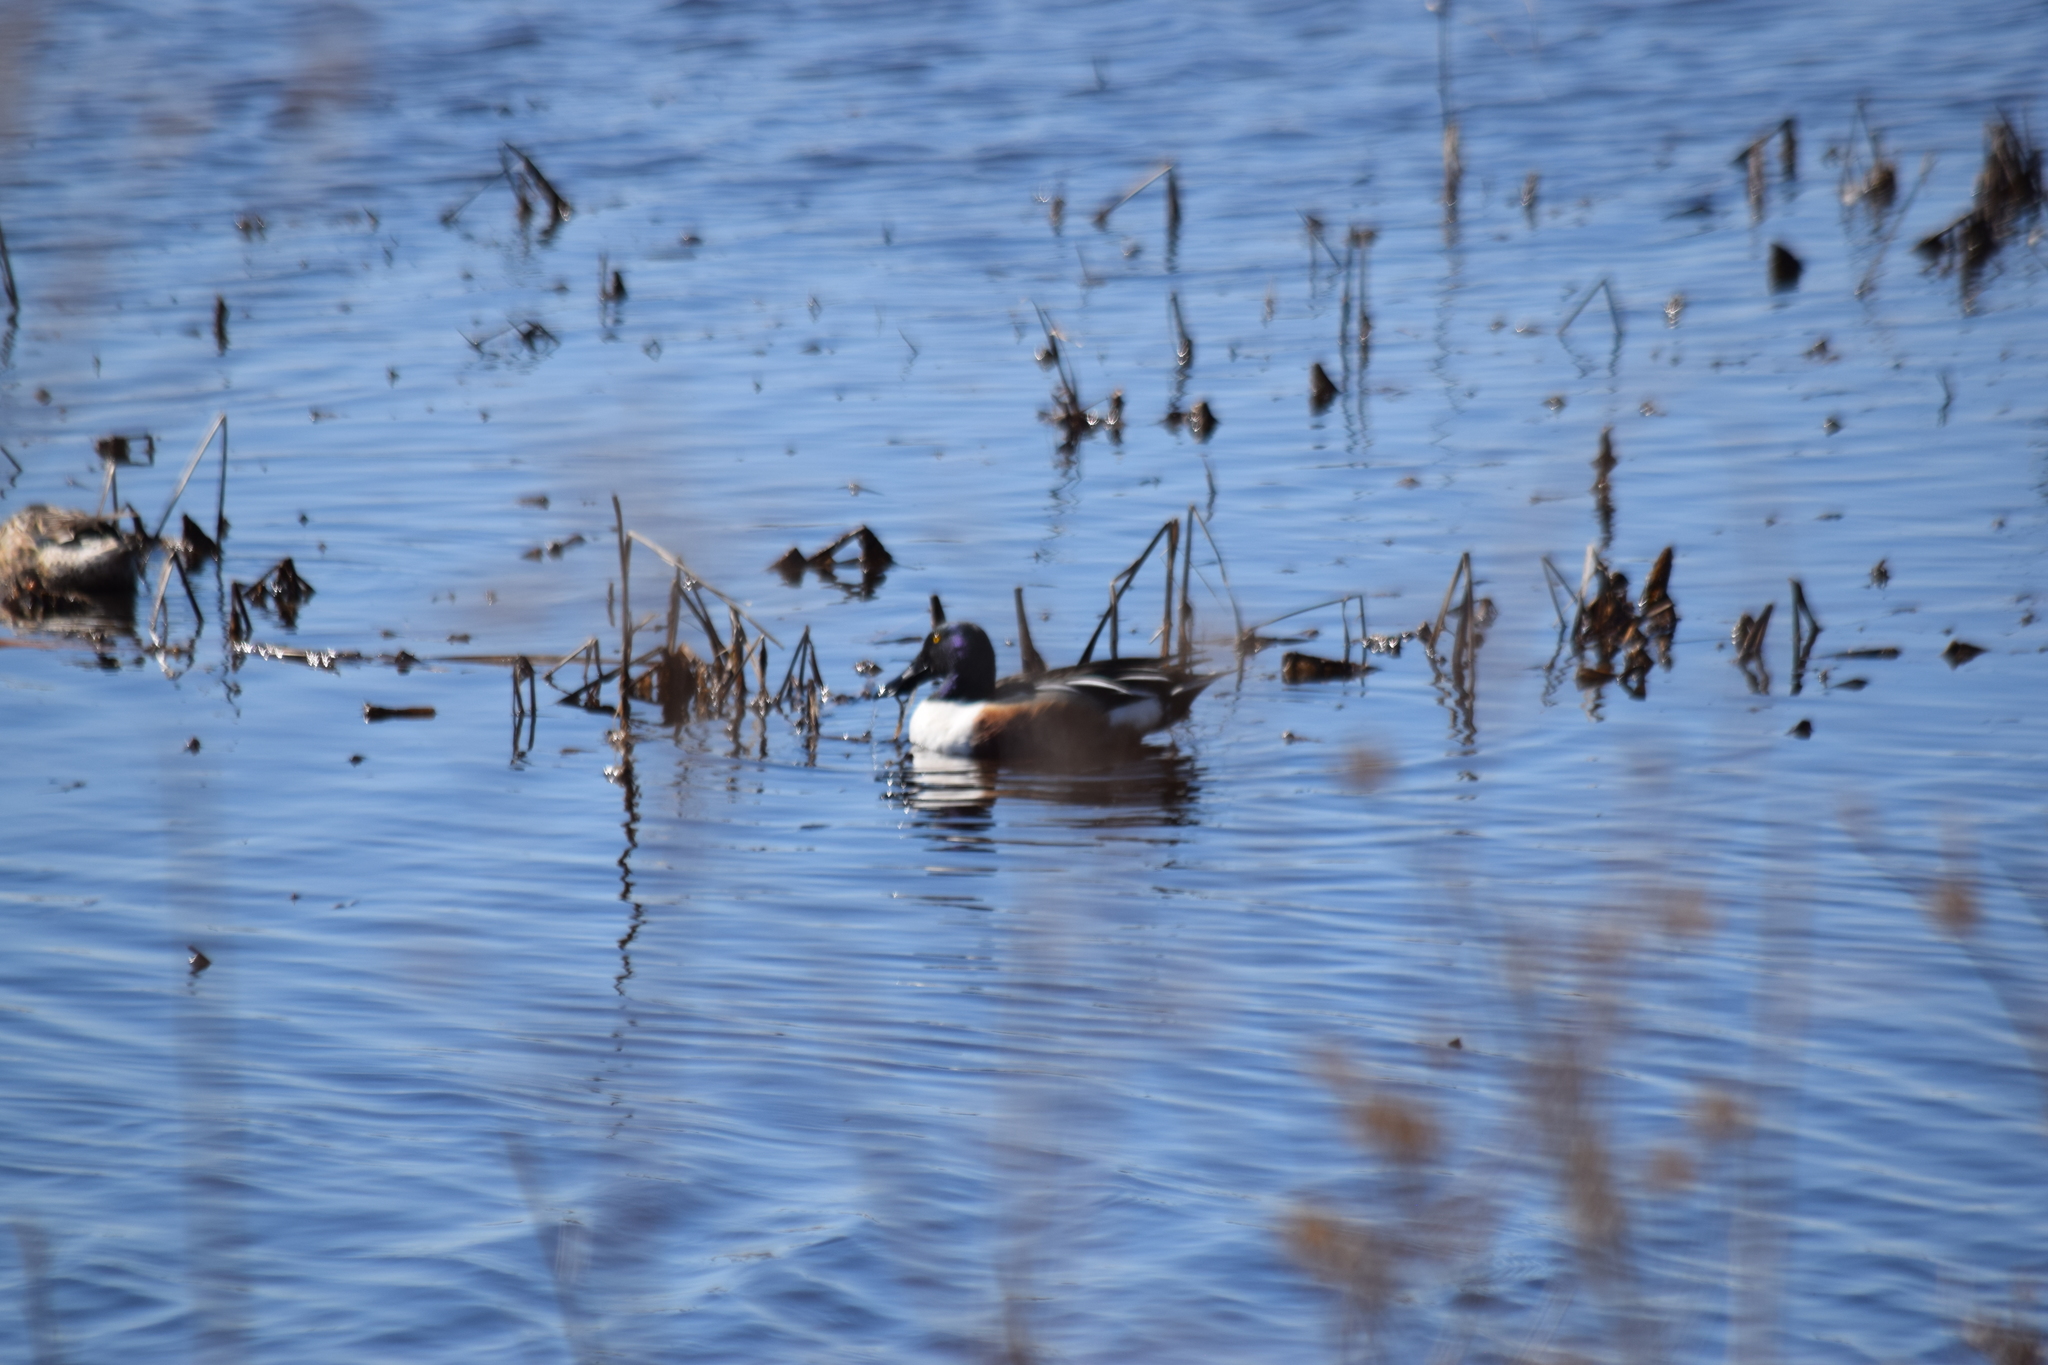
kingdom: Animalia
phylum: Chordata
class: Aves
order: Anseriformes
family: Anatidae
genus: Spatula
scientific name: Spatula clypeata
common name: Northern shoveler
